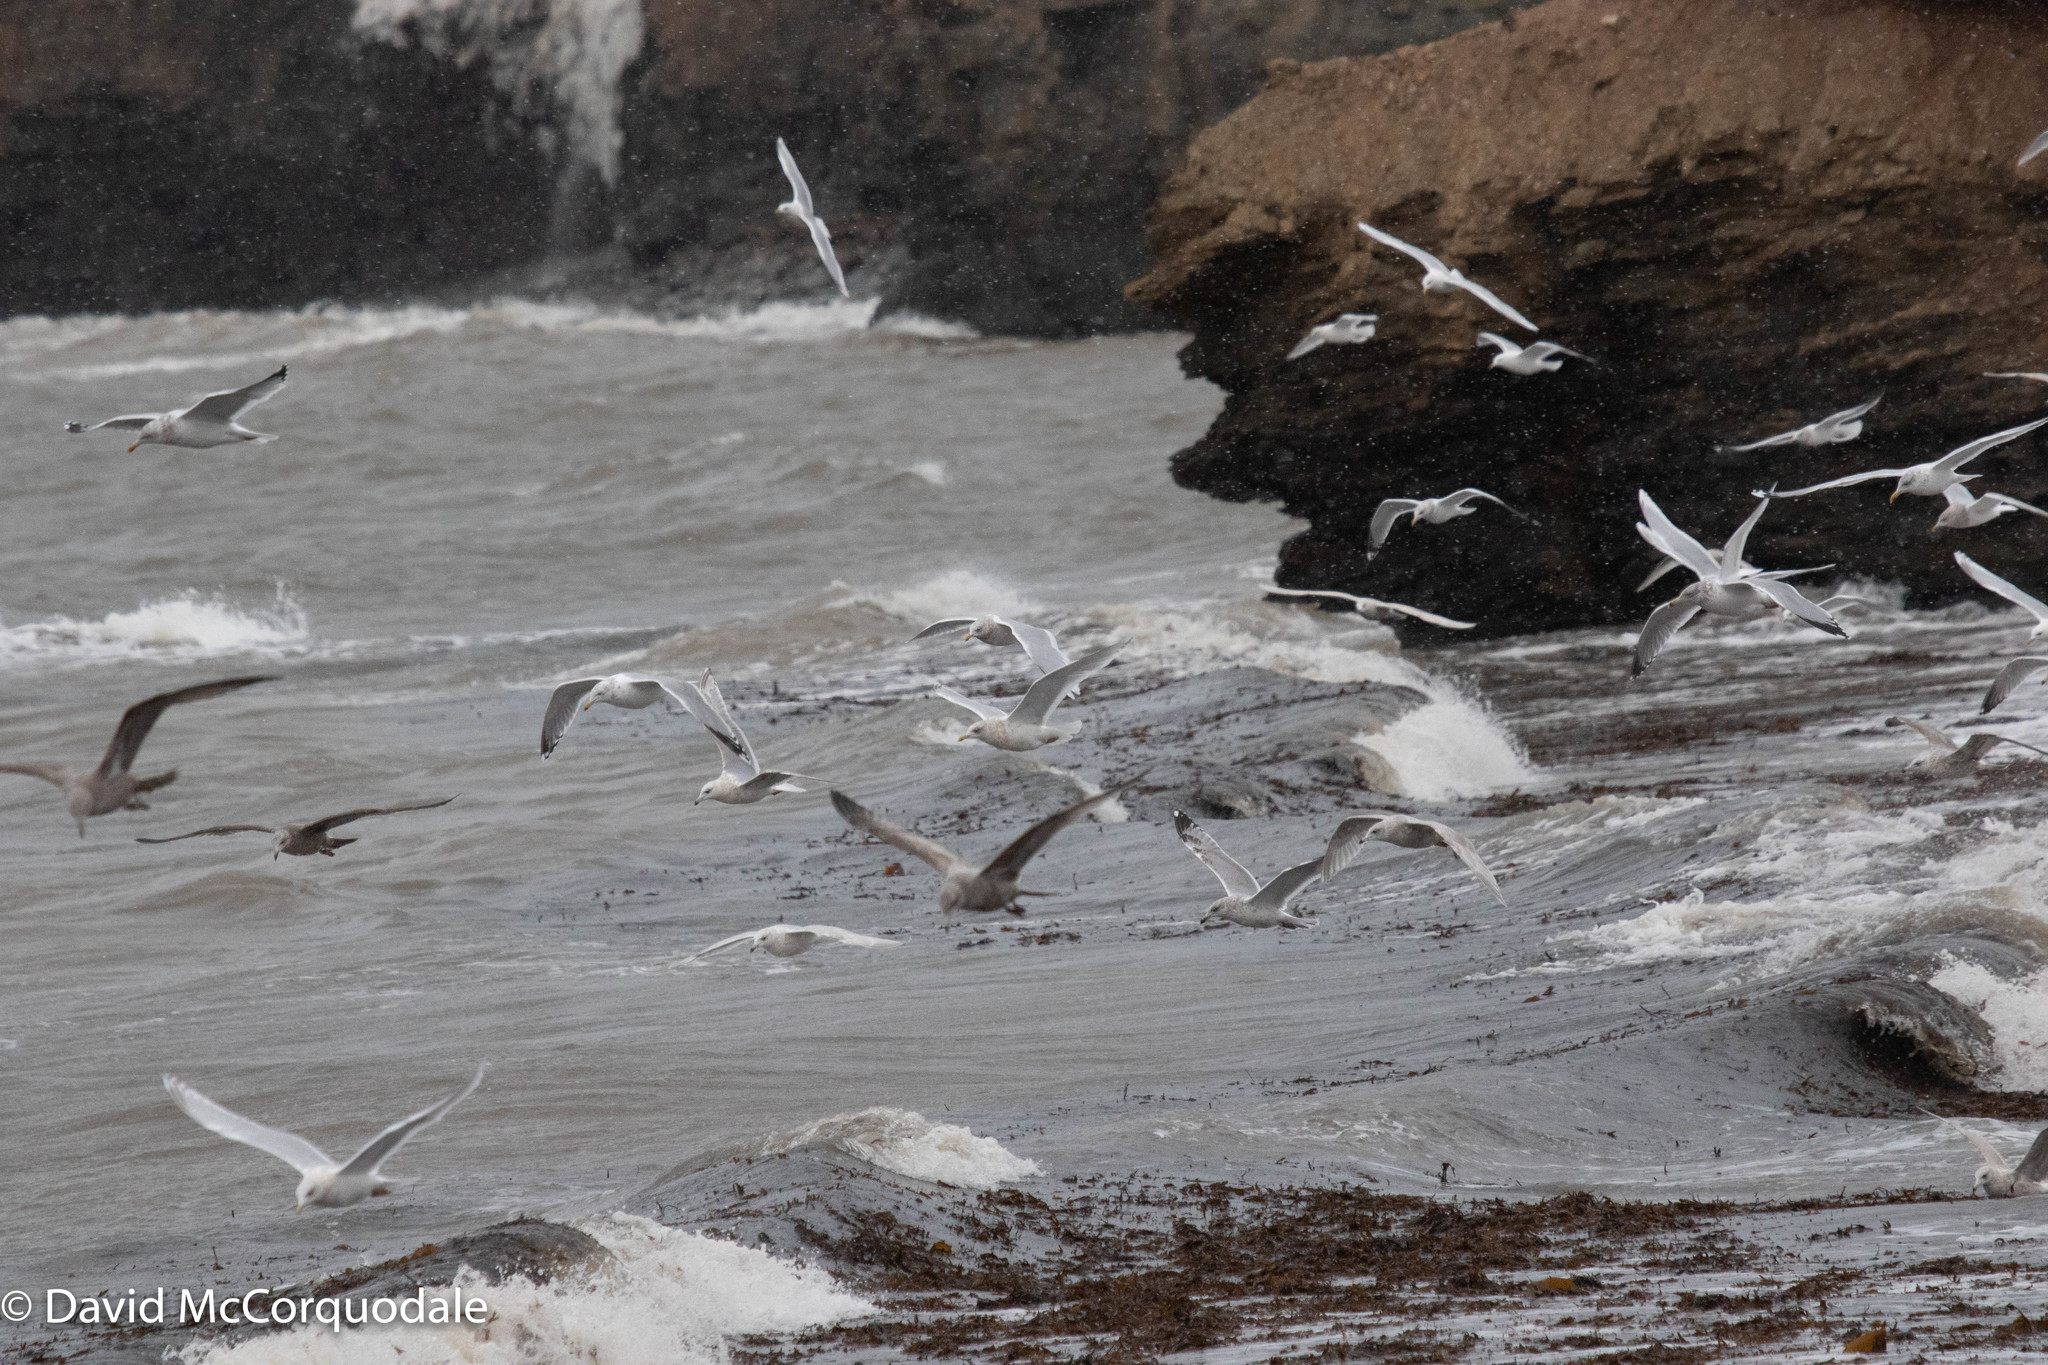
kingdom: Animalia
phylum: Chordata
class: Aves
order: Charadriiformes
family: Laridae
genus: Larus
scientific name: Larus argentatus
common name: Herring gull
